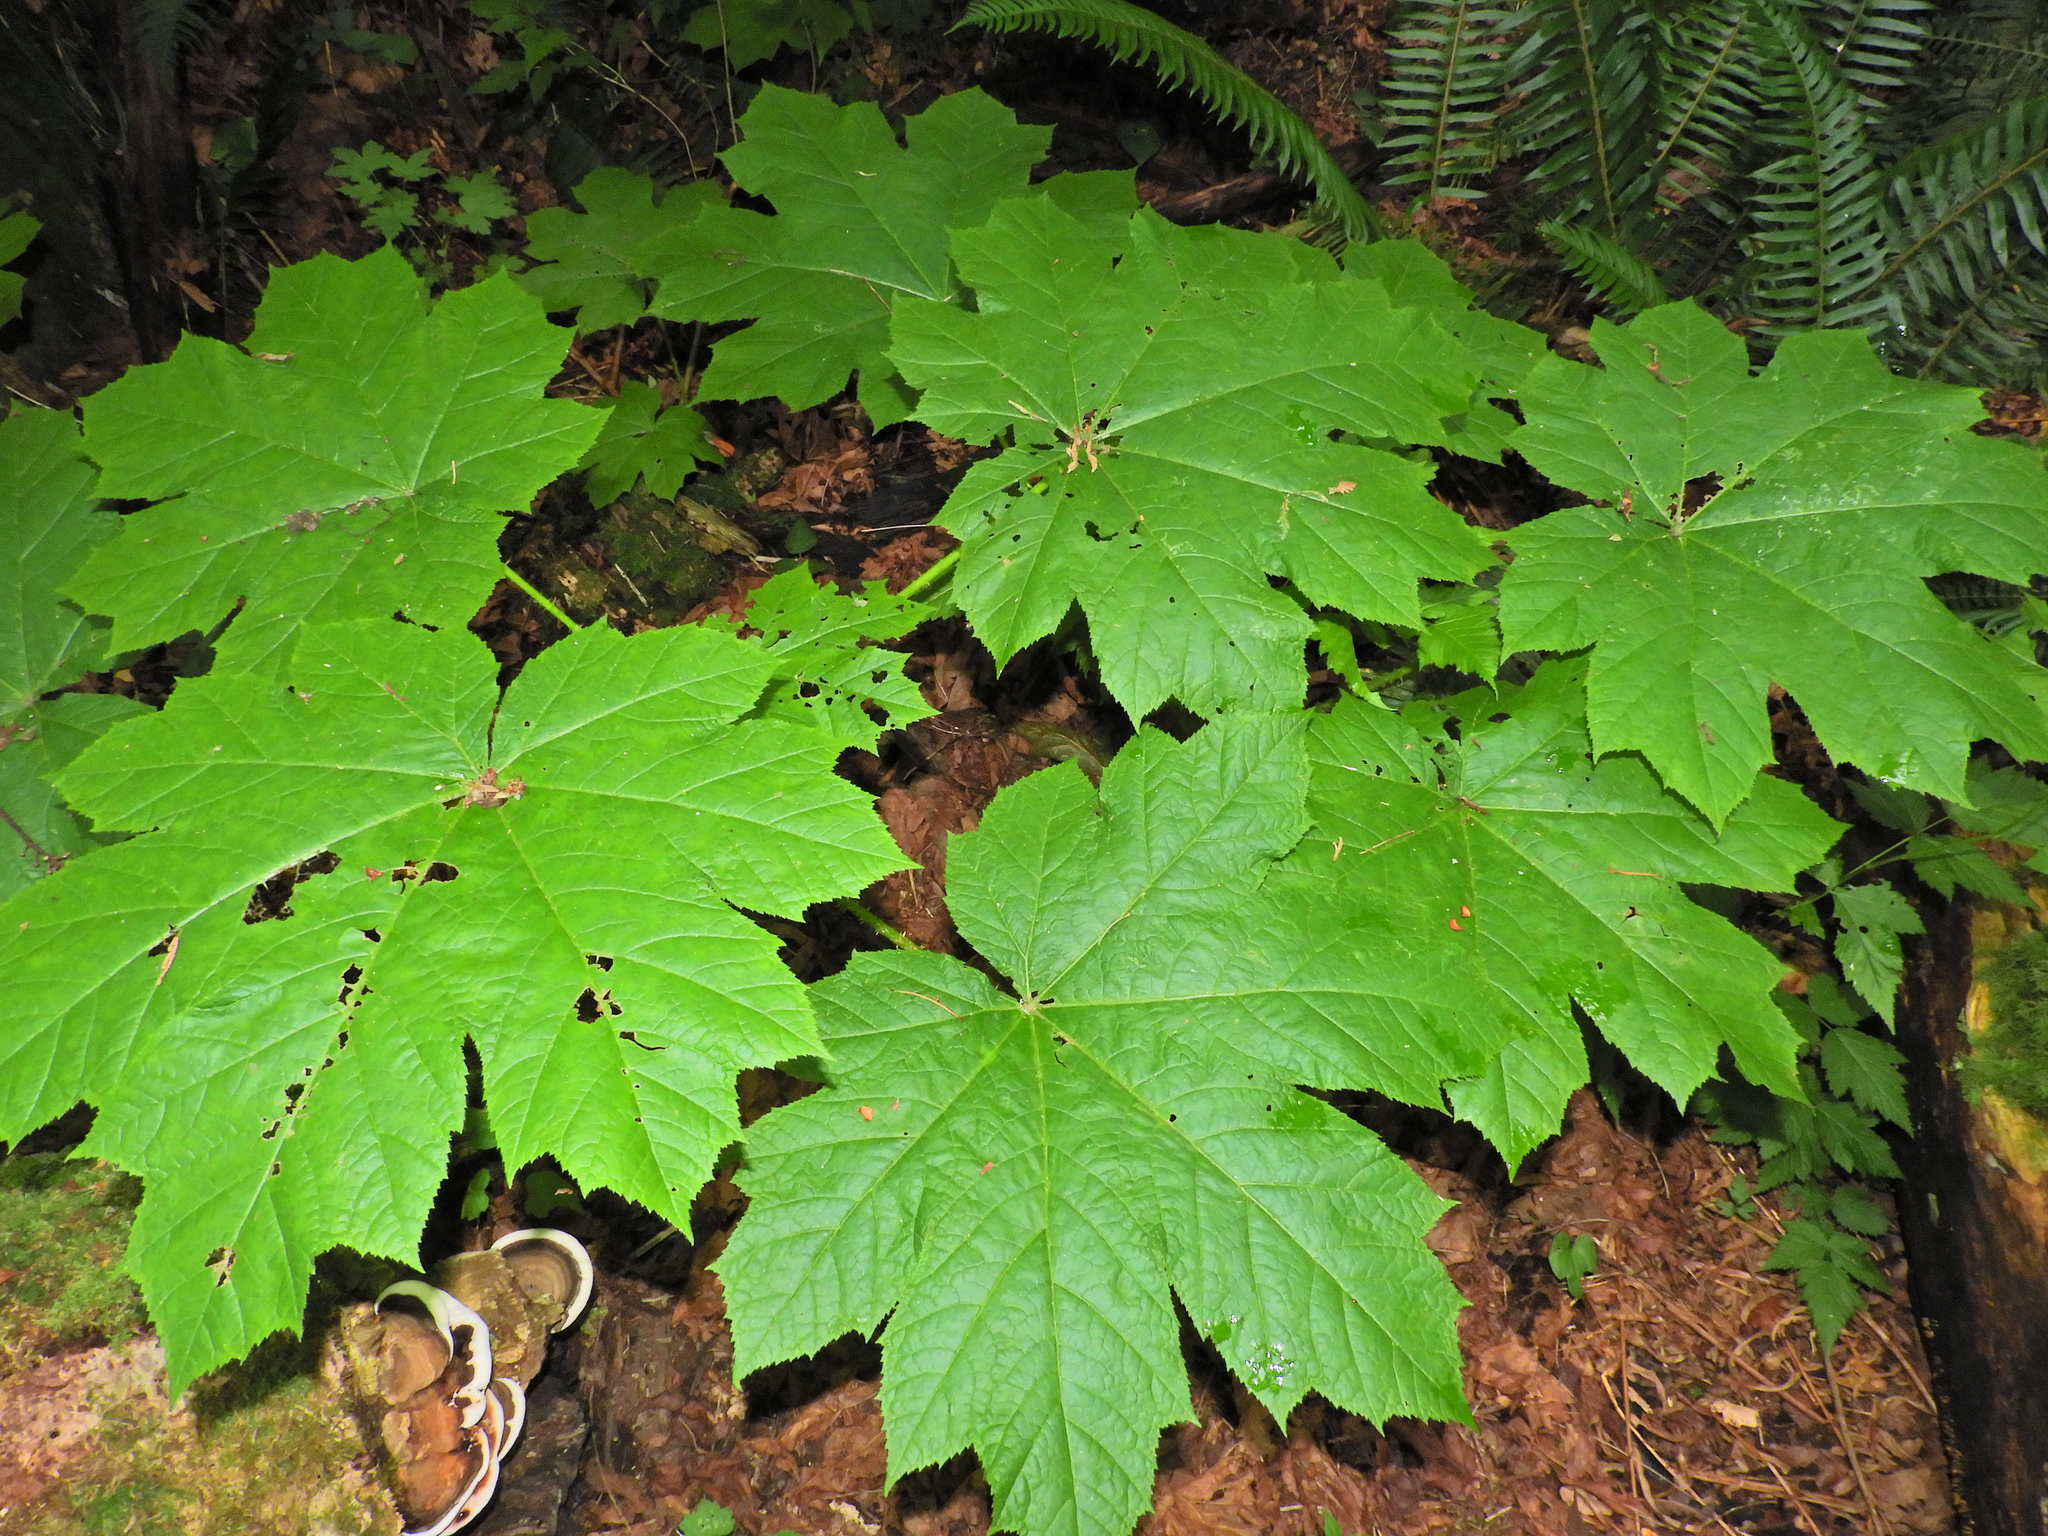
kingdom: Plantae
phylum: Tracheophyta
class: Magnoliopsida
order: Apiales
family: Araliaceae
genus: Oplopanax
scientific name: Oplopanax horridus
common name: Devil's walking-stick
